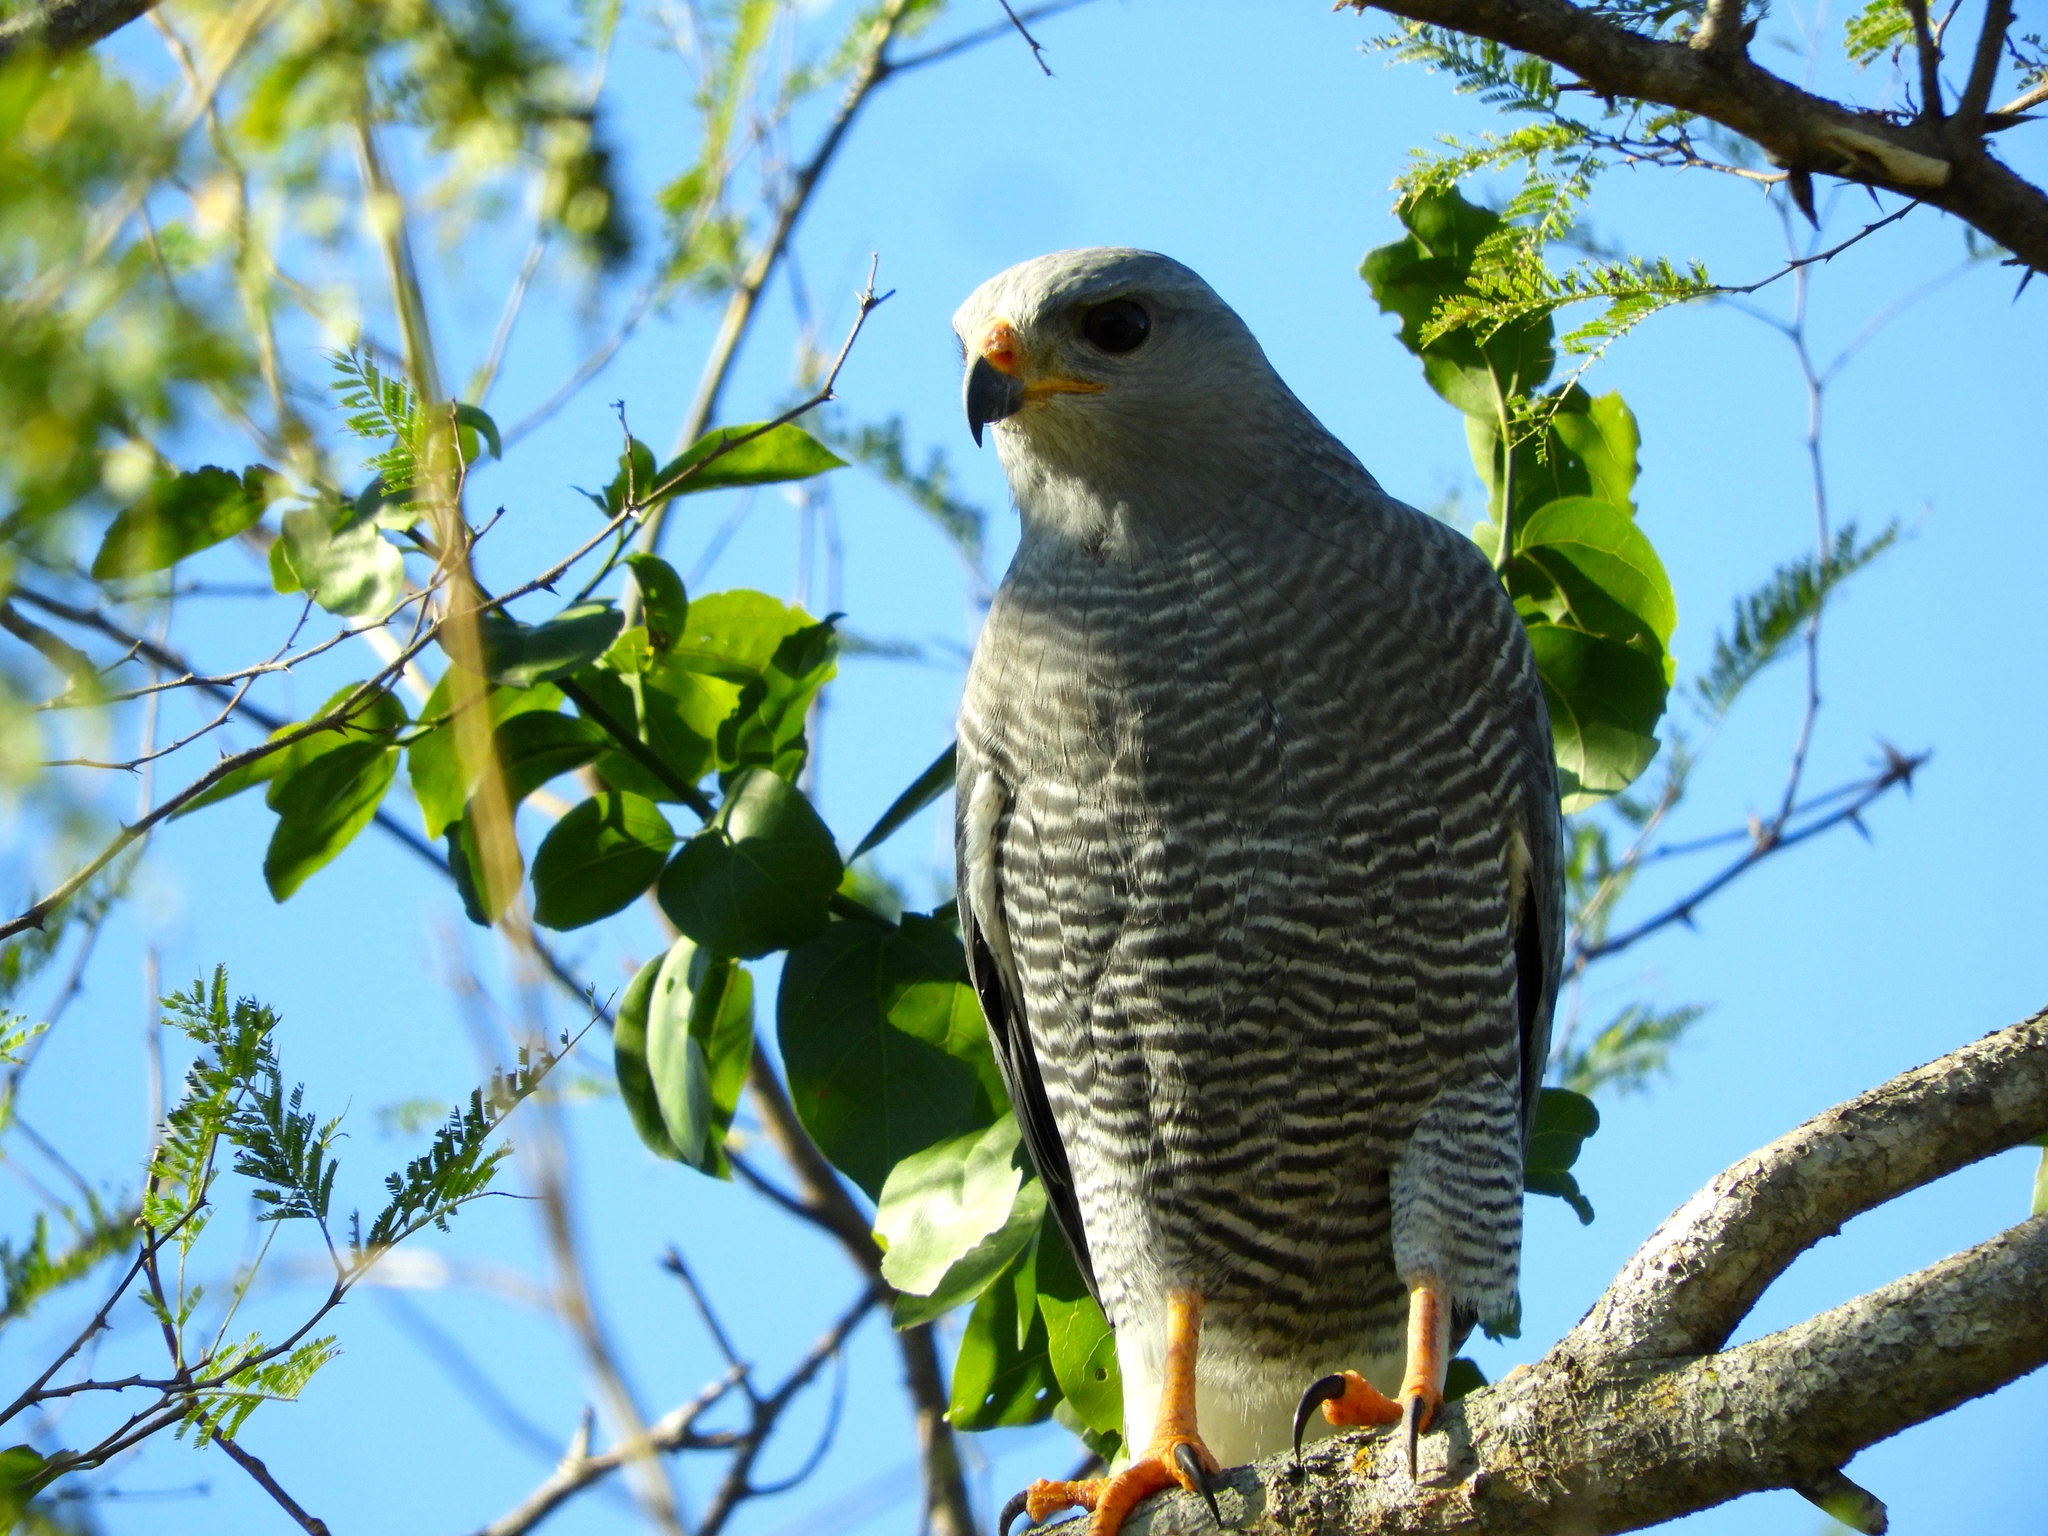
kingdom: Animalia
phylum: Chordata
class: Aves
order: Accipitriformes
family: Accipitridae
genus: Buteo
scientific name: Buteo nitidus
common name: Grey-lined hawk
